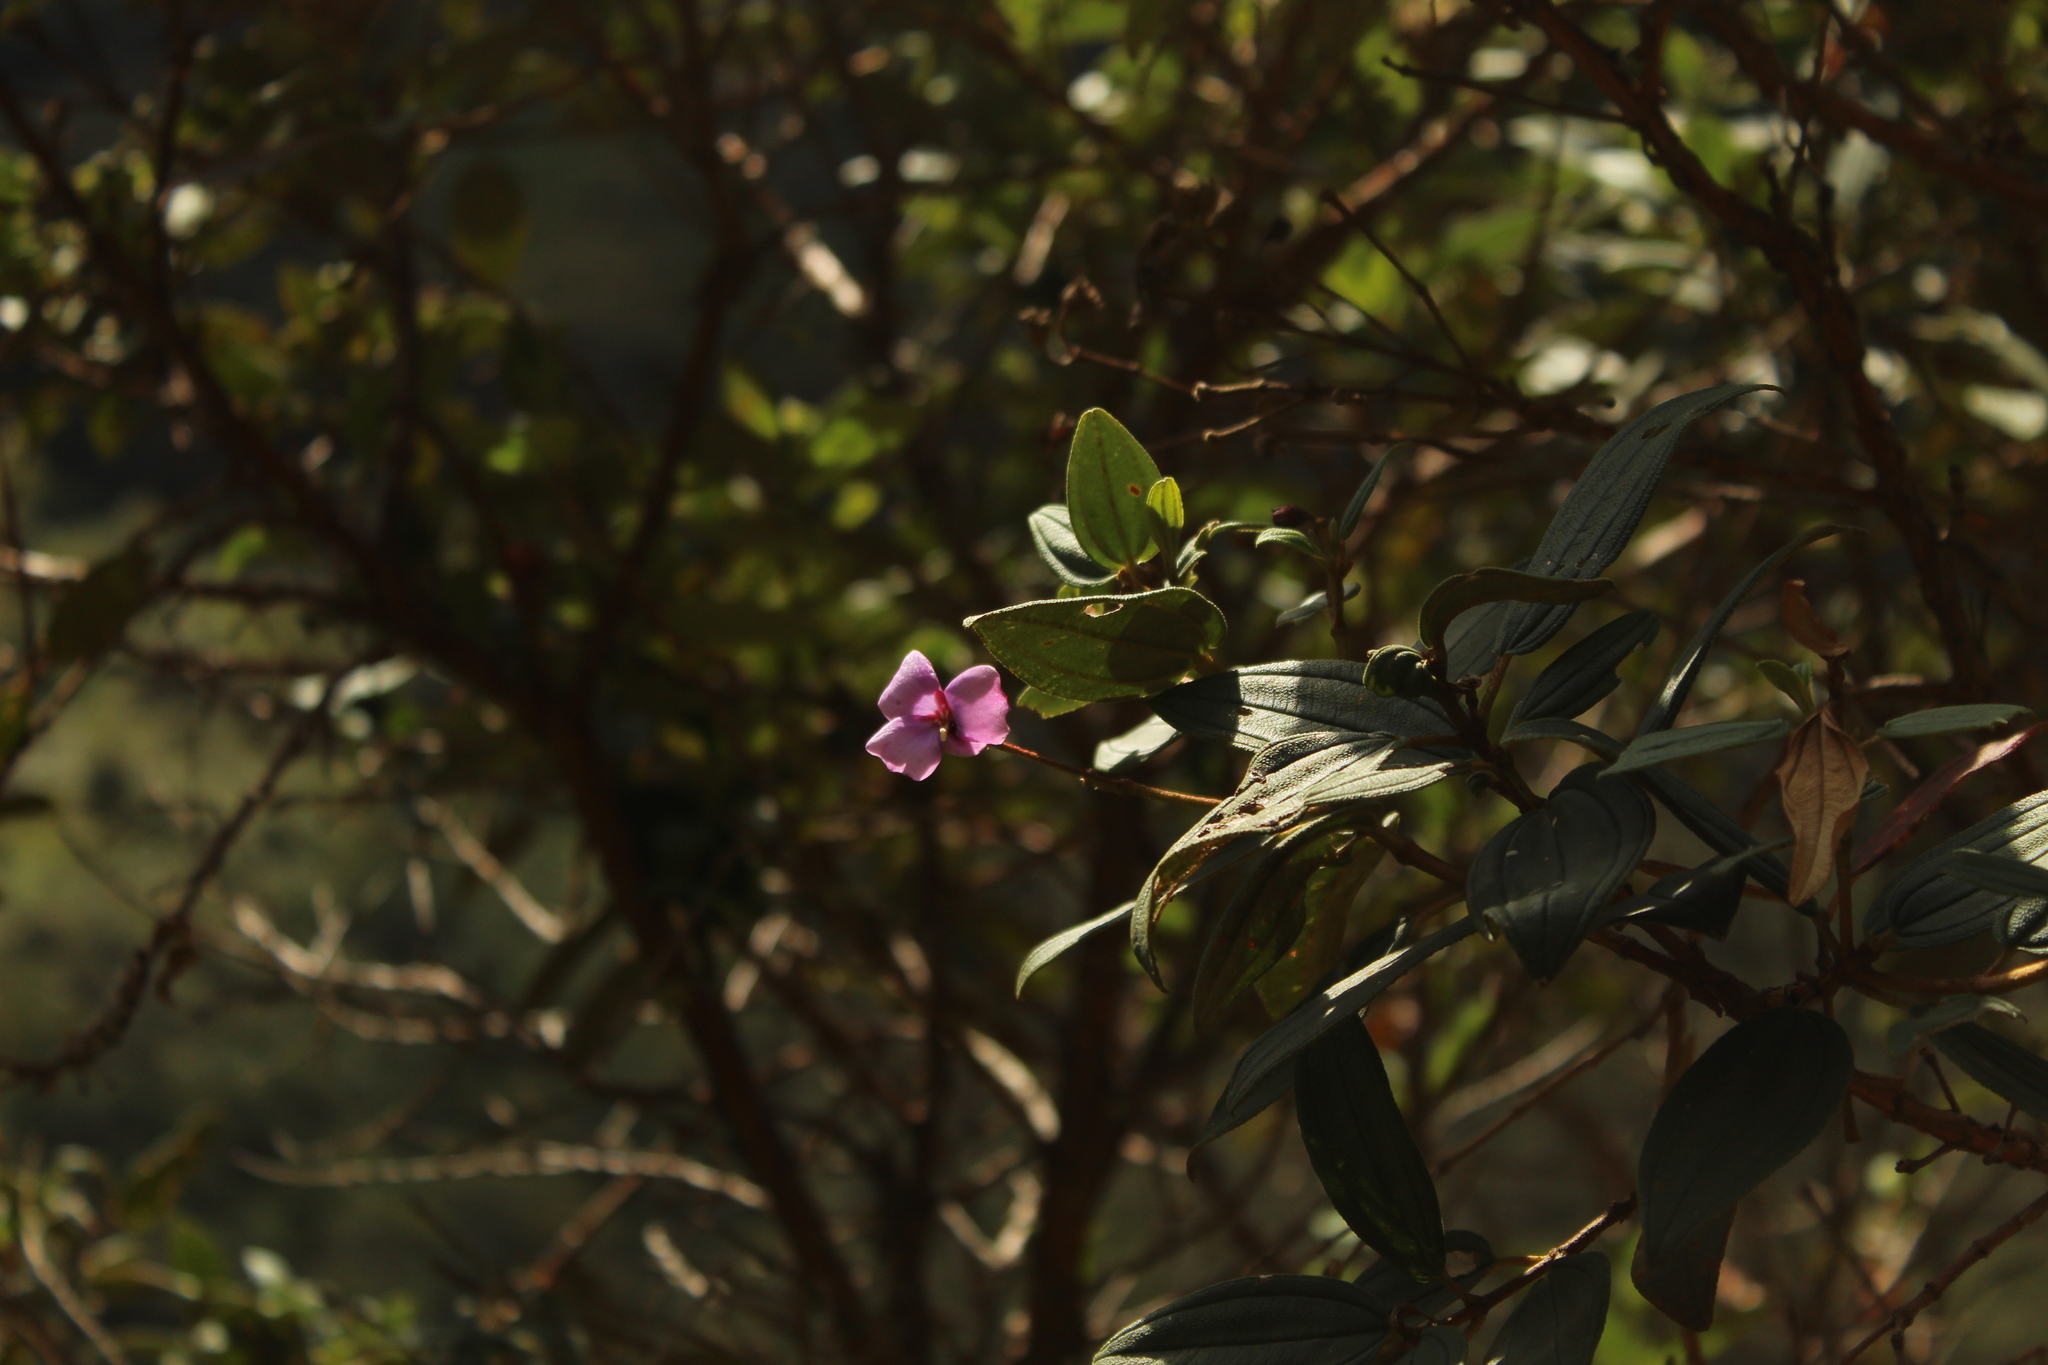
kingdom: Plantae
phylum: Tracheophyta
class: Magnoliopsida
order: Myrtales
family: Melastomataceae
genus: Andesanthus
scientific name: Andesanthus lepidotus
